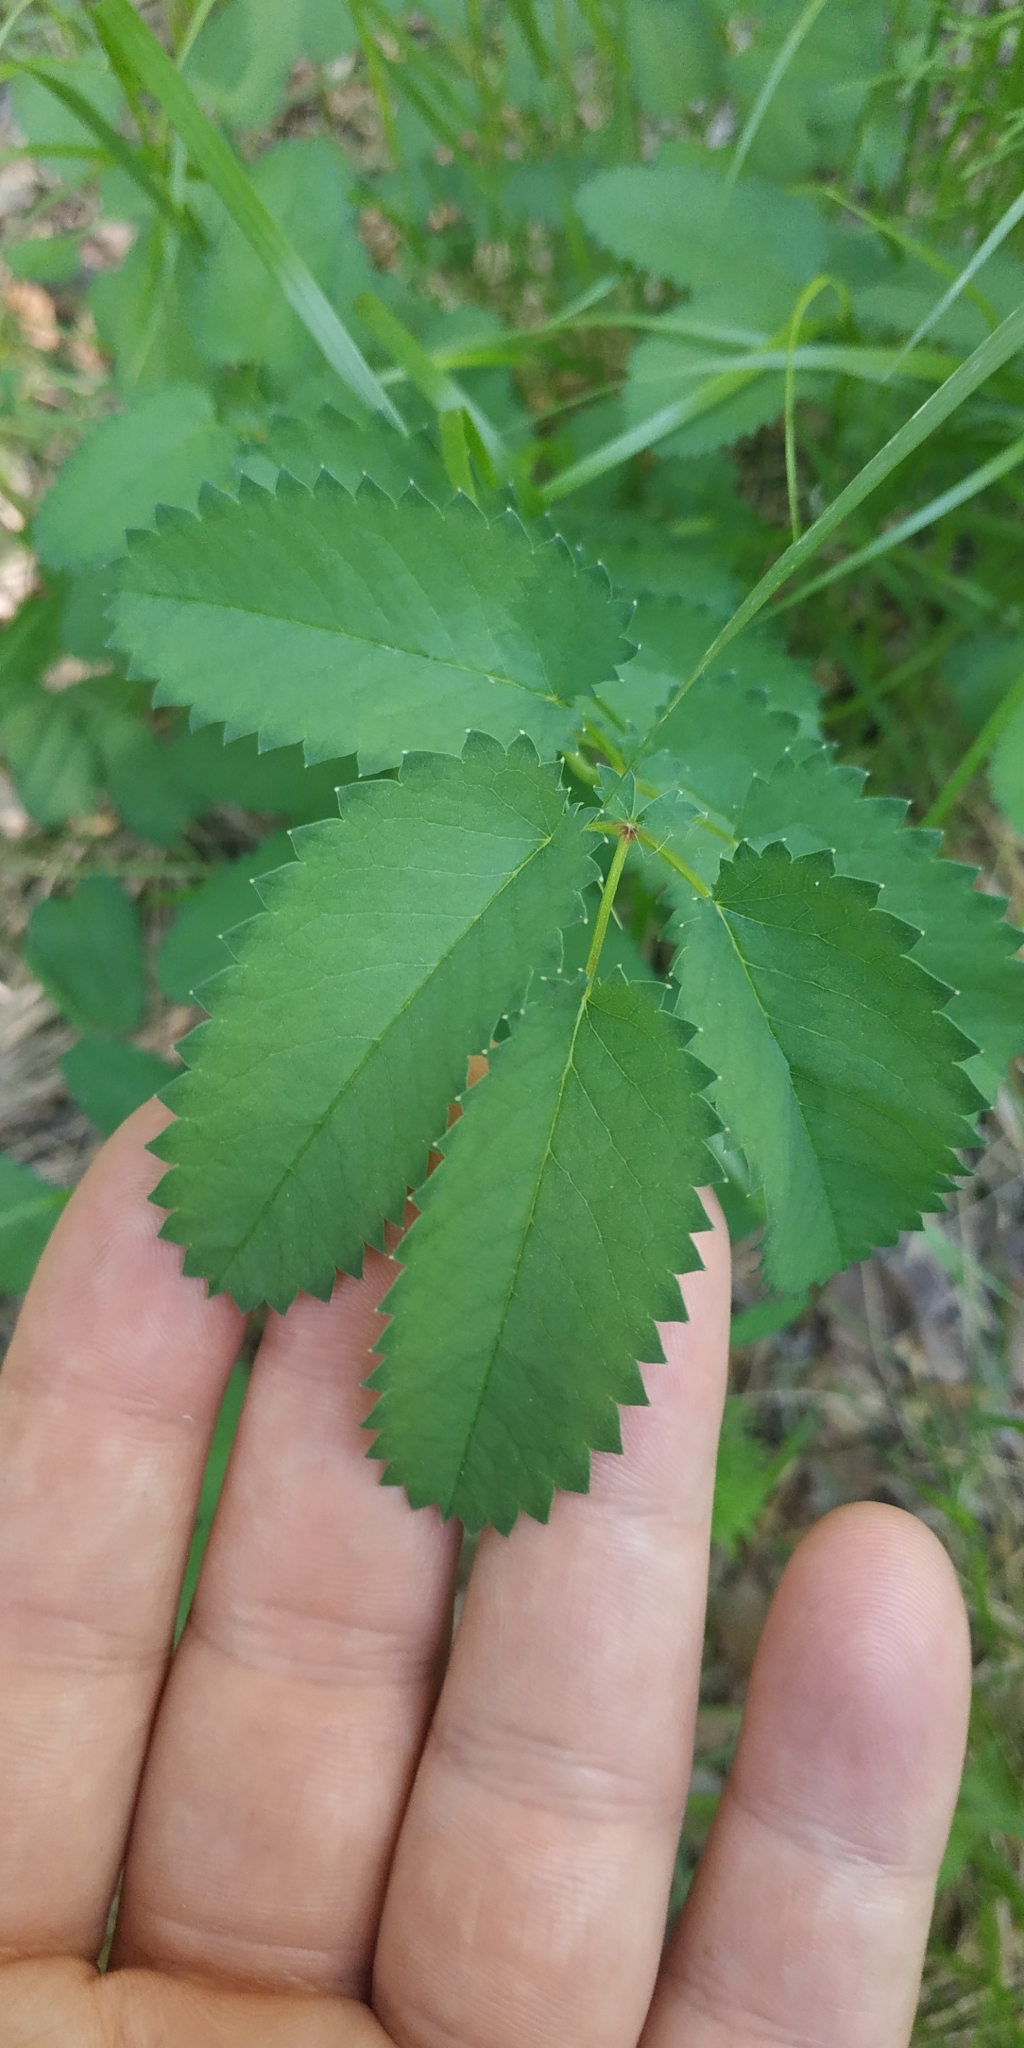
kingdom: Plantae
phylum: Tracheophyta
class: Magnoliopsida
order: Rosales
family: Rosaceae
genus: Sanguisorba
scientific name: Sanguisorba officinalis
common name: Great burnet
